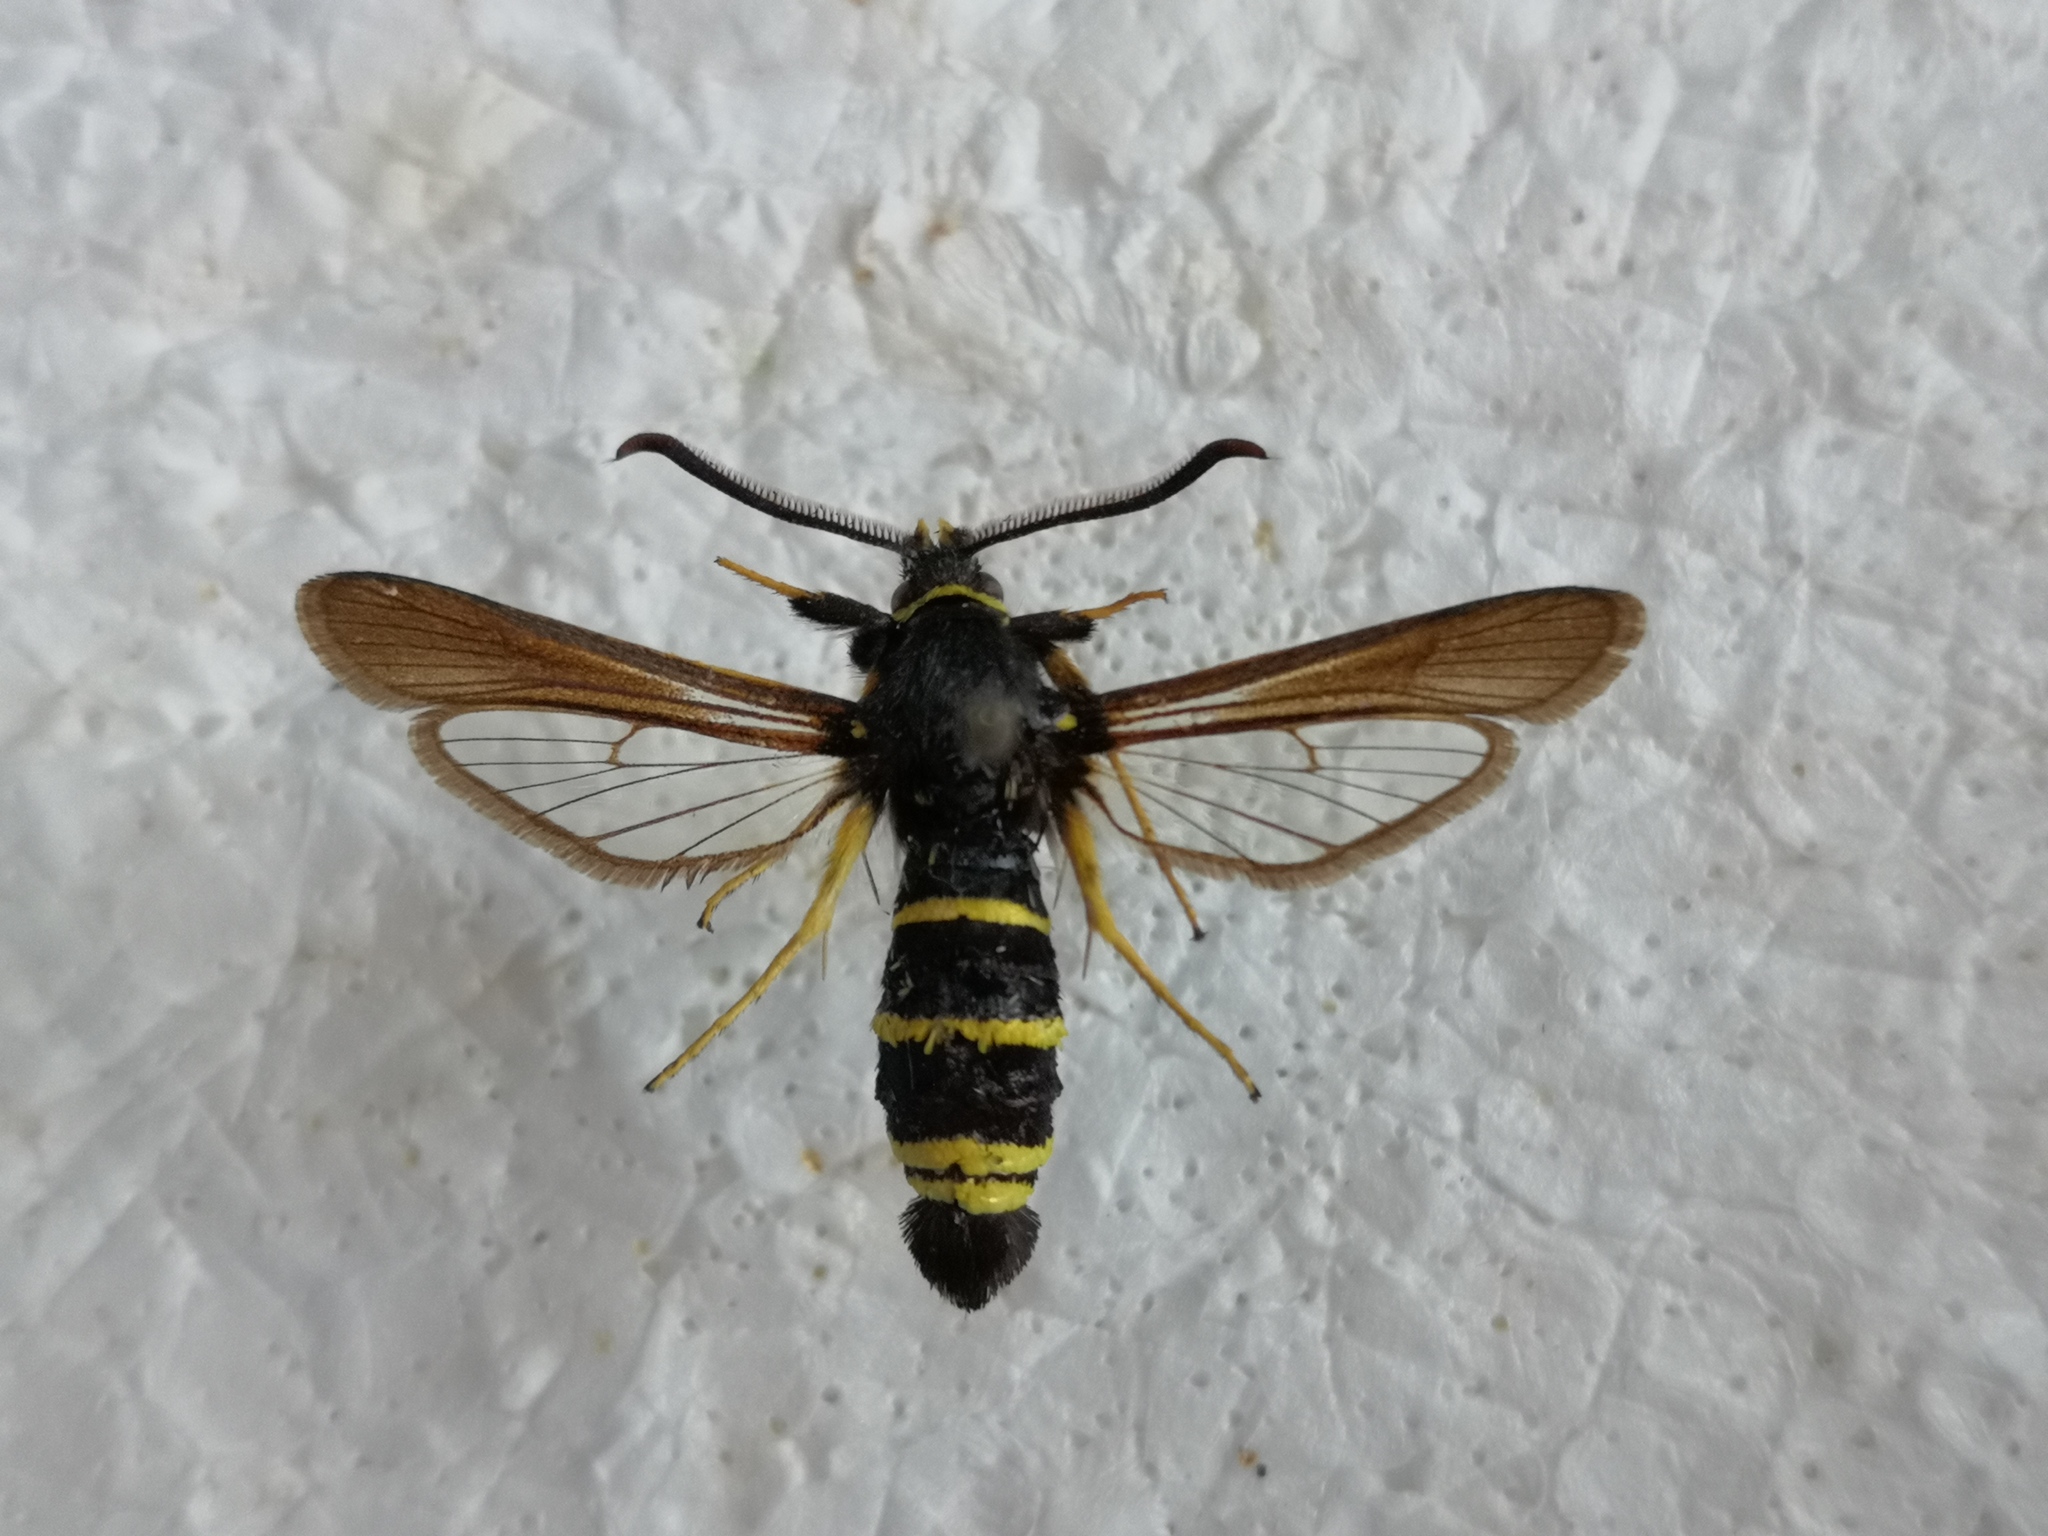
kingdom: Animalia
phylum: Arthropoda
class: Insecta
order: Lepidoptera
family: Sesiidae
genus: Paranthrene
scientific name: Paranthrene tabaniformis
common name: Dusky clearwing
